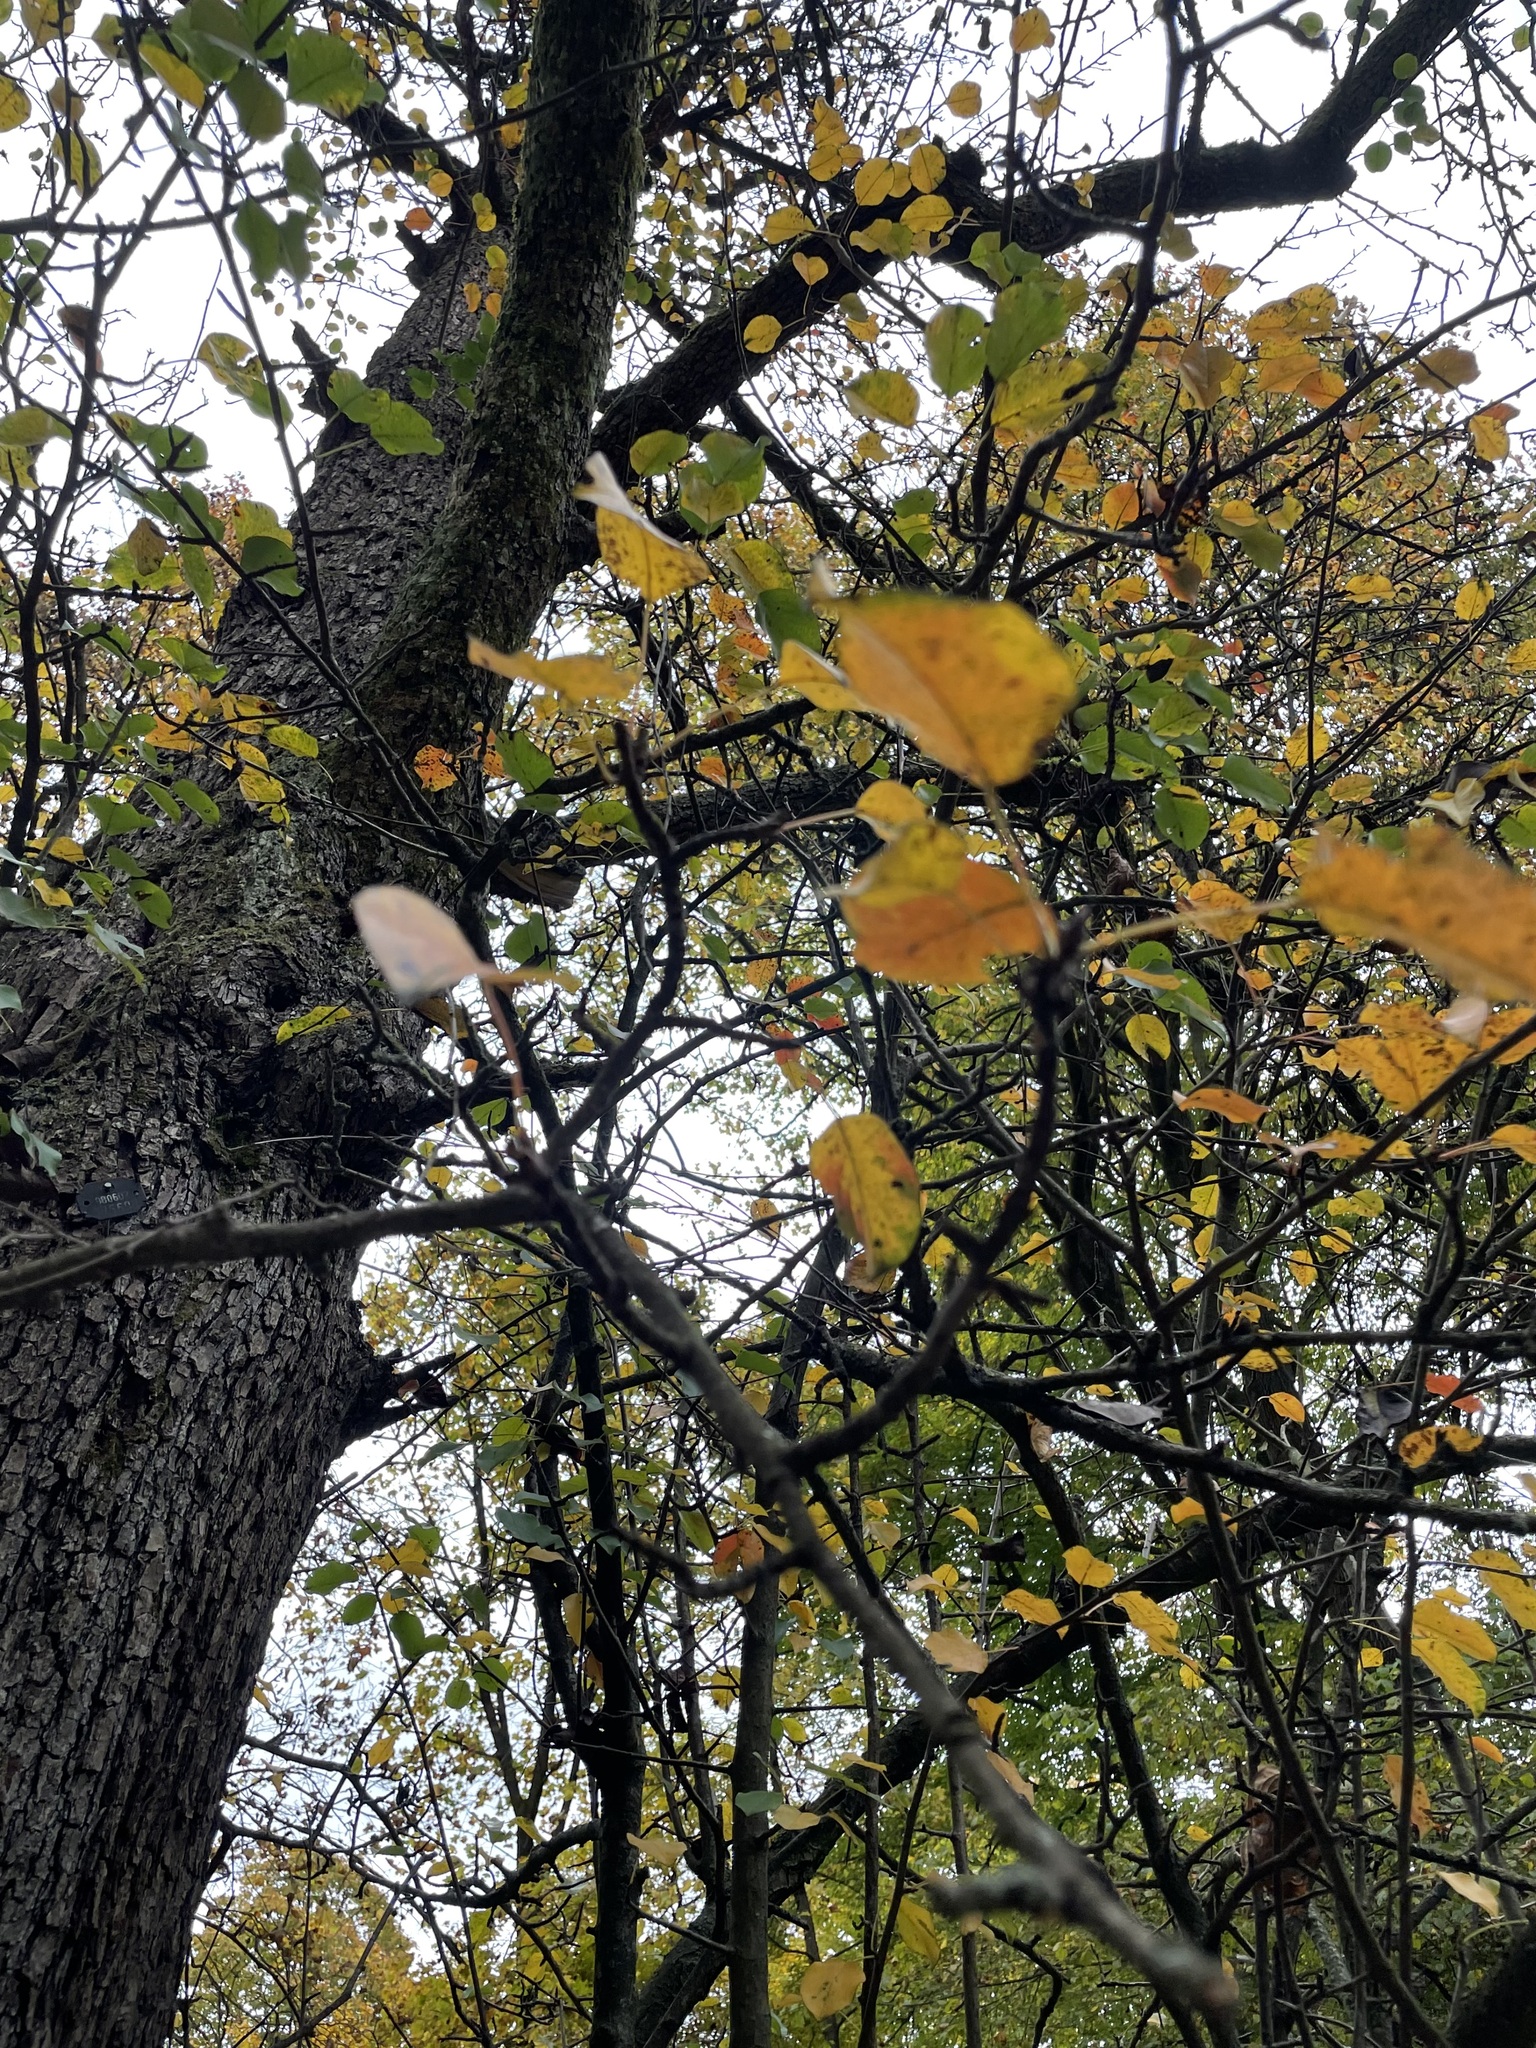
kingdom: Plantae
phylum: Tracheophyta
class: Magnoliopsida
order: Fagales
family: Betulaceae
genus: Alnus
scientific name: Alnus glutinosa
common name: Black alder
